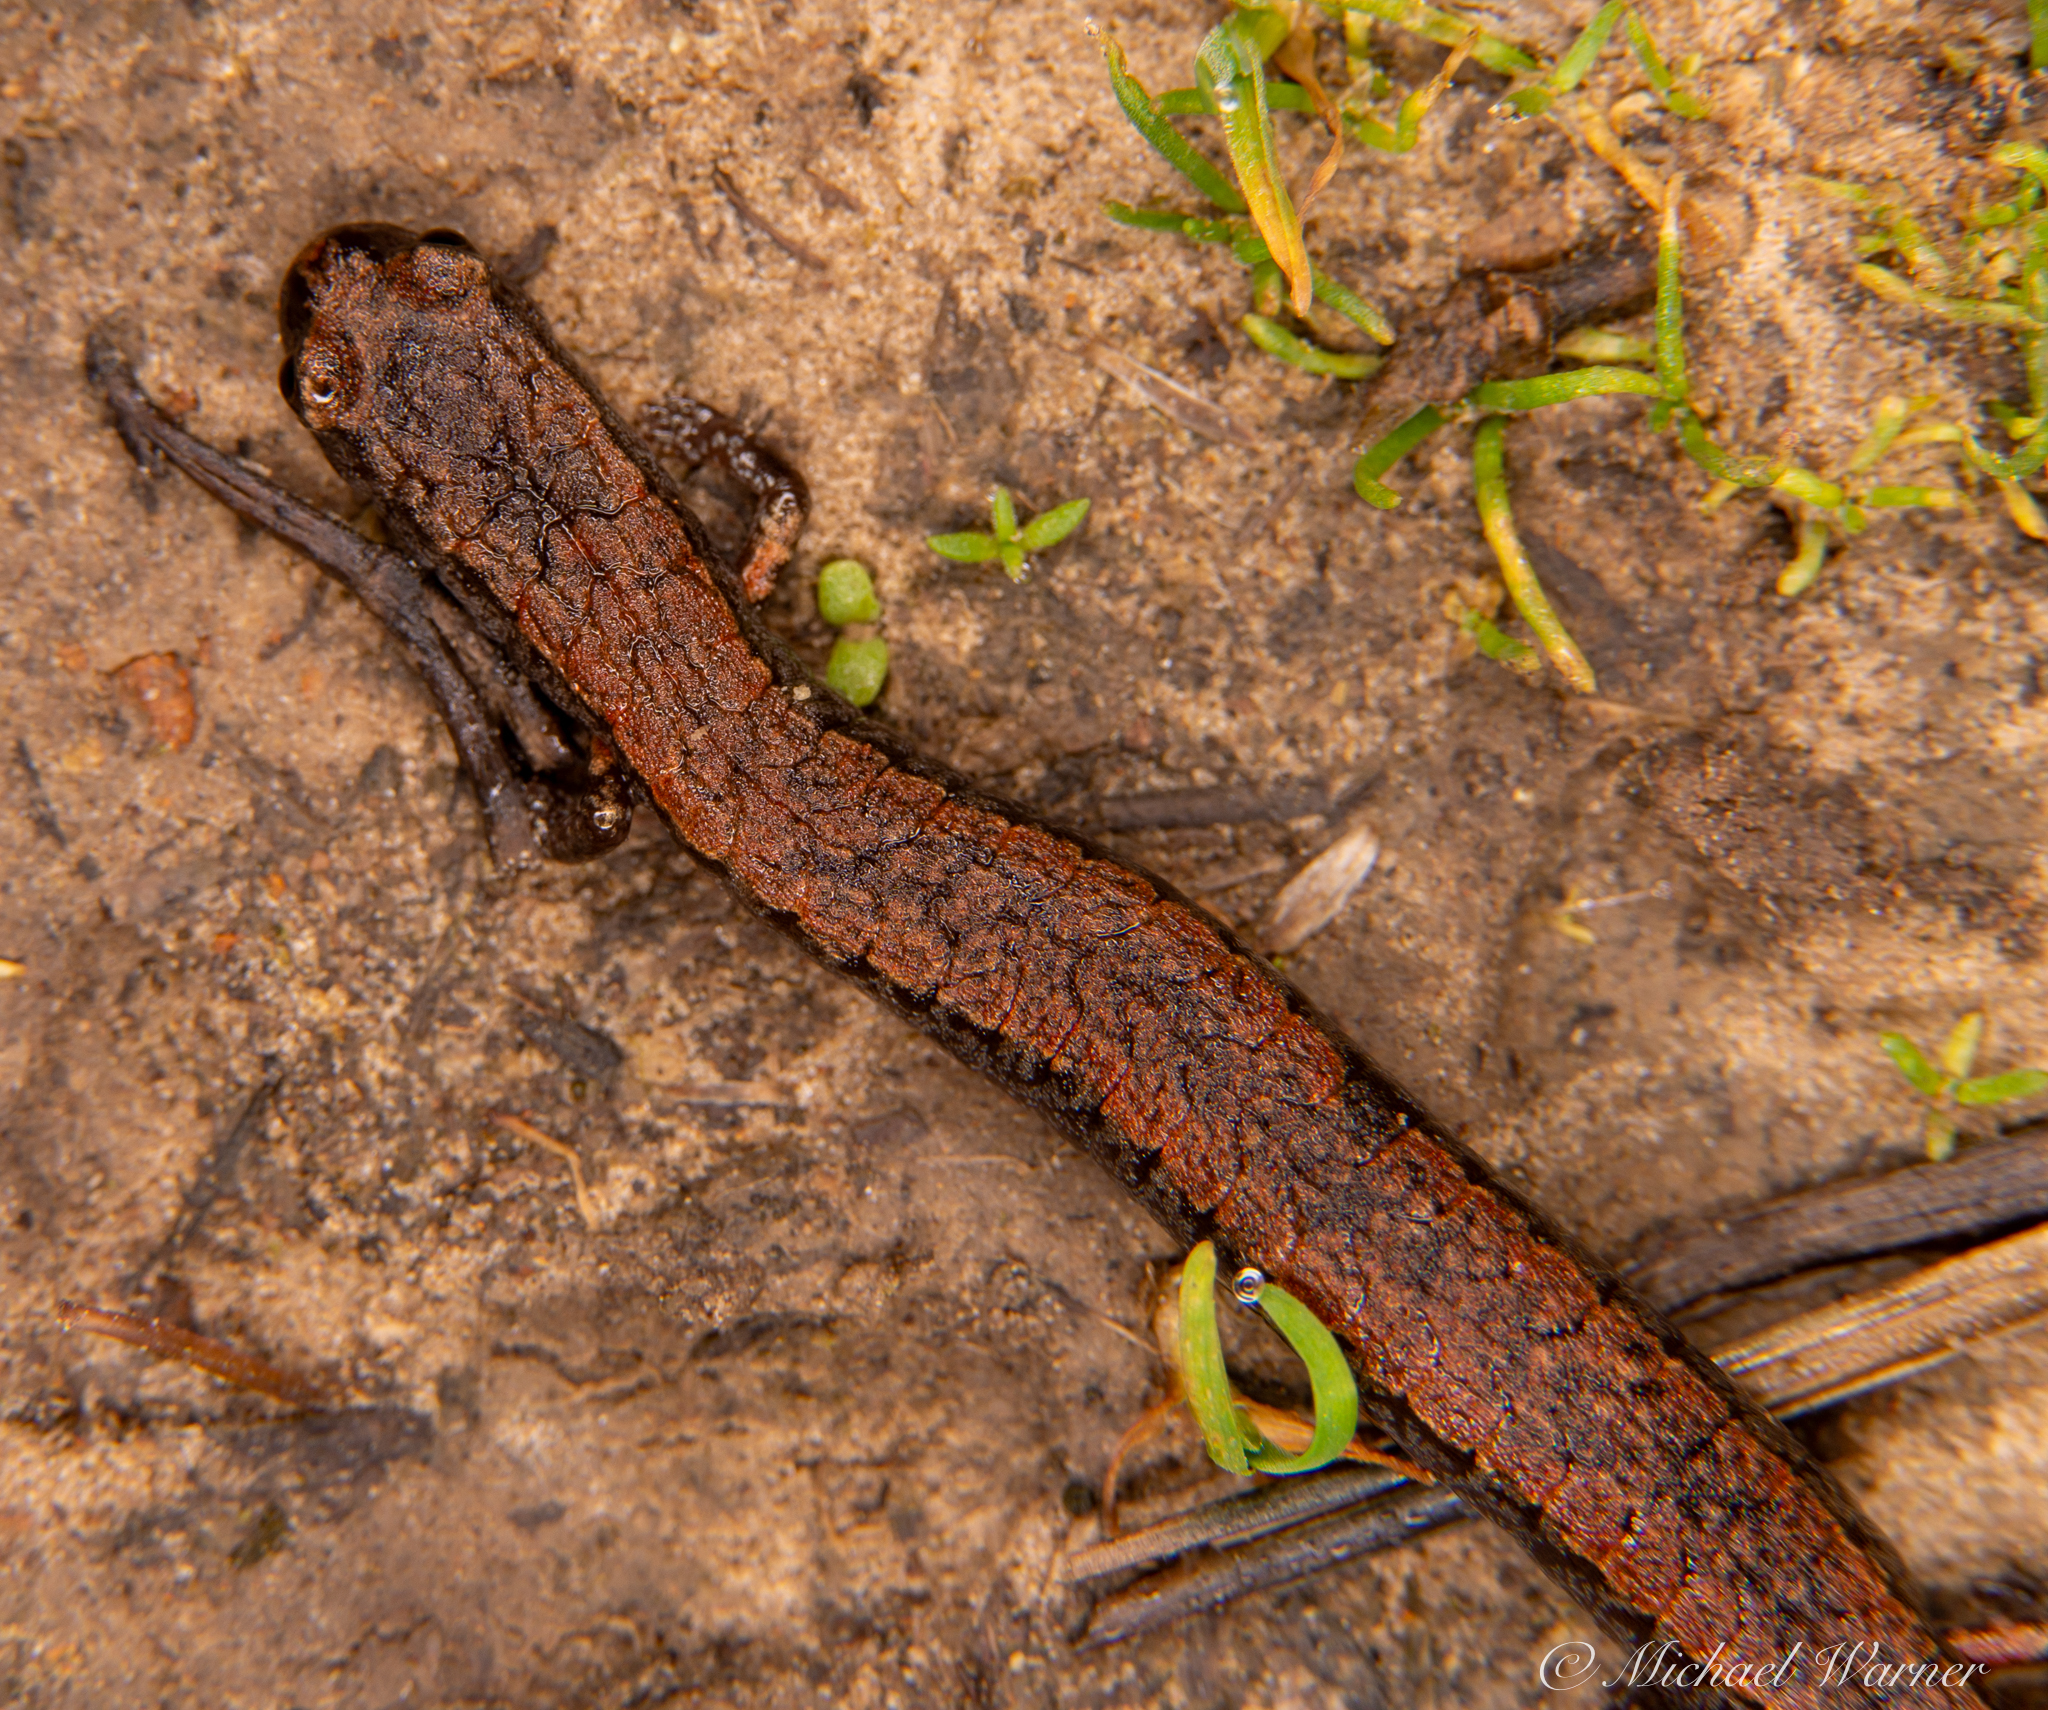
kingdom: Animalia
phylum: Chordata
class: Amphibia
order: Caudata
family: Plethodontidae
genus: Batrachoseps
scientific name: Batrachoseps attenuatus
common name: California slender salamander
